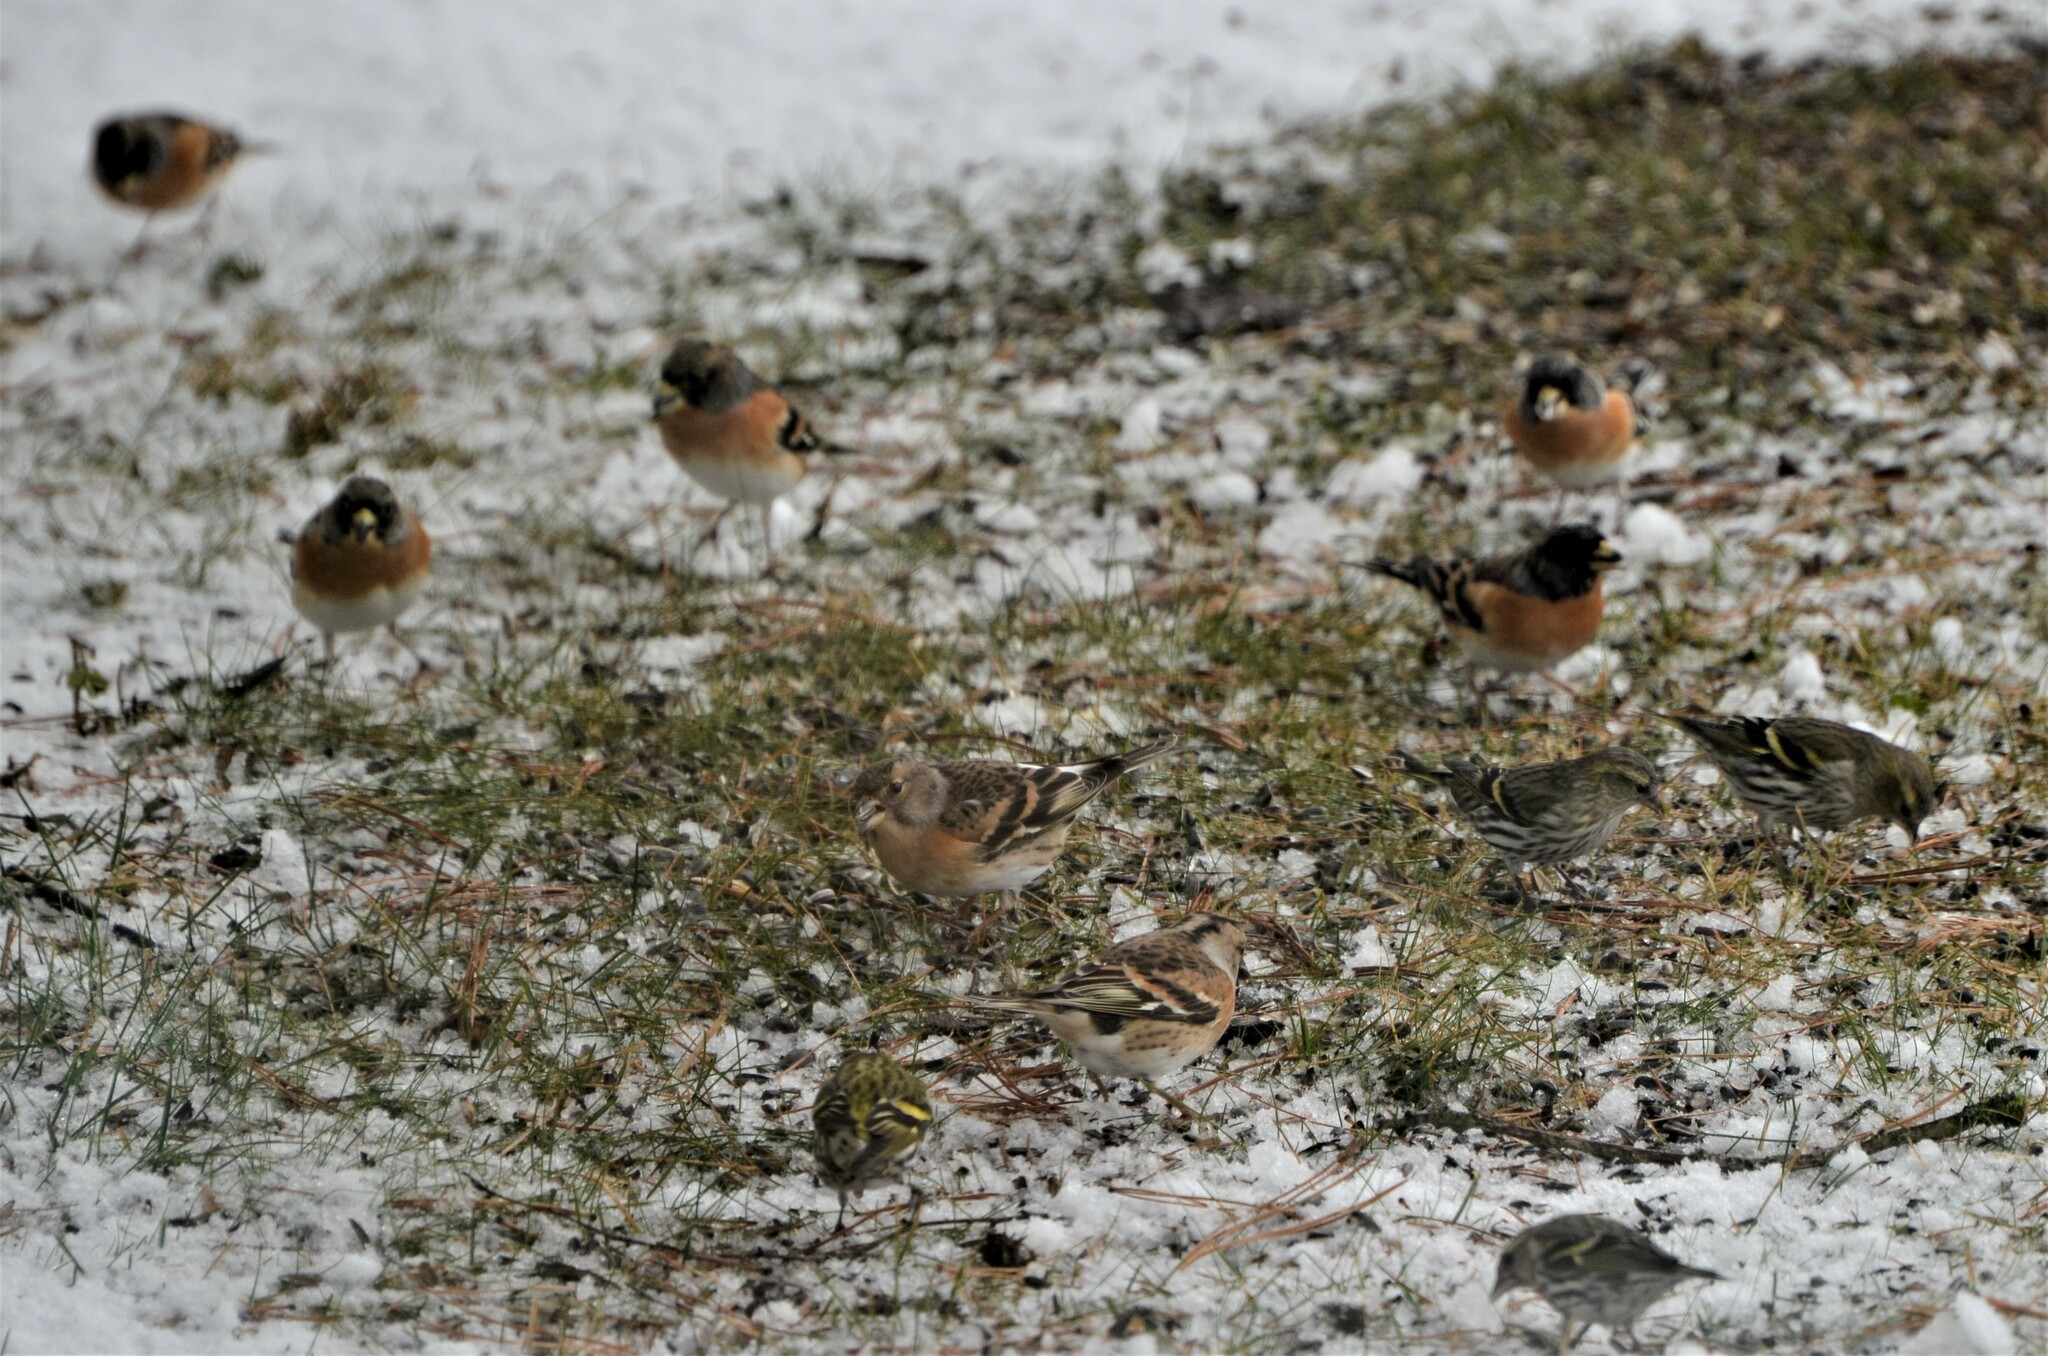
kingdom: Animalia
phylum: Chordata
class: Aves
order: Passeriformes
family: Fringillidae
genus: Fringilla
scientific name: Fringilla montifringilla
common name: Brambling
